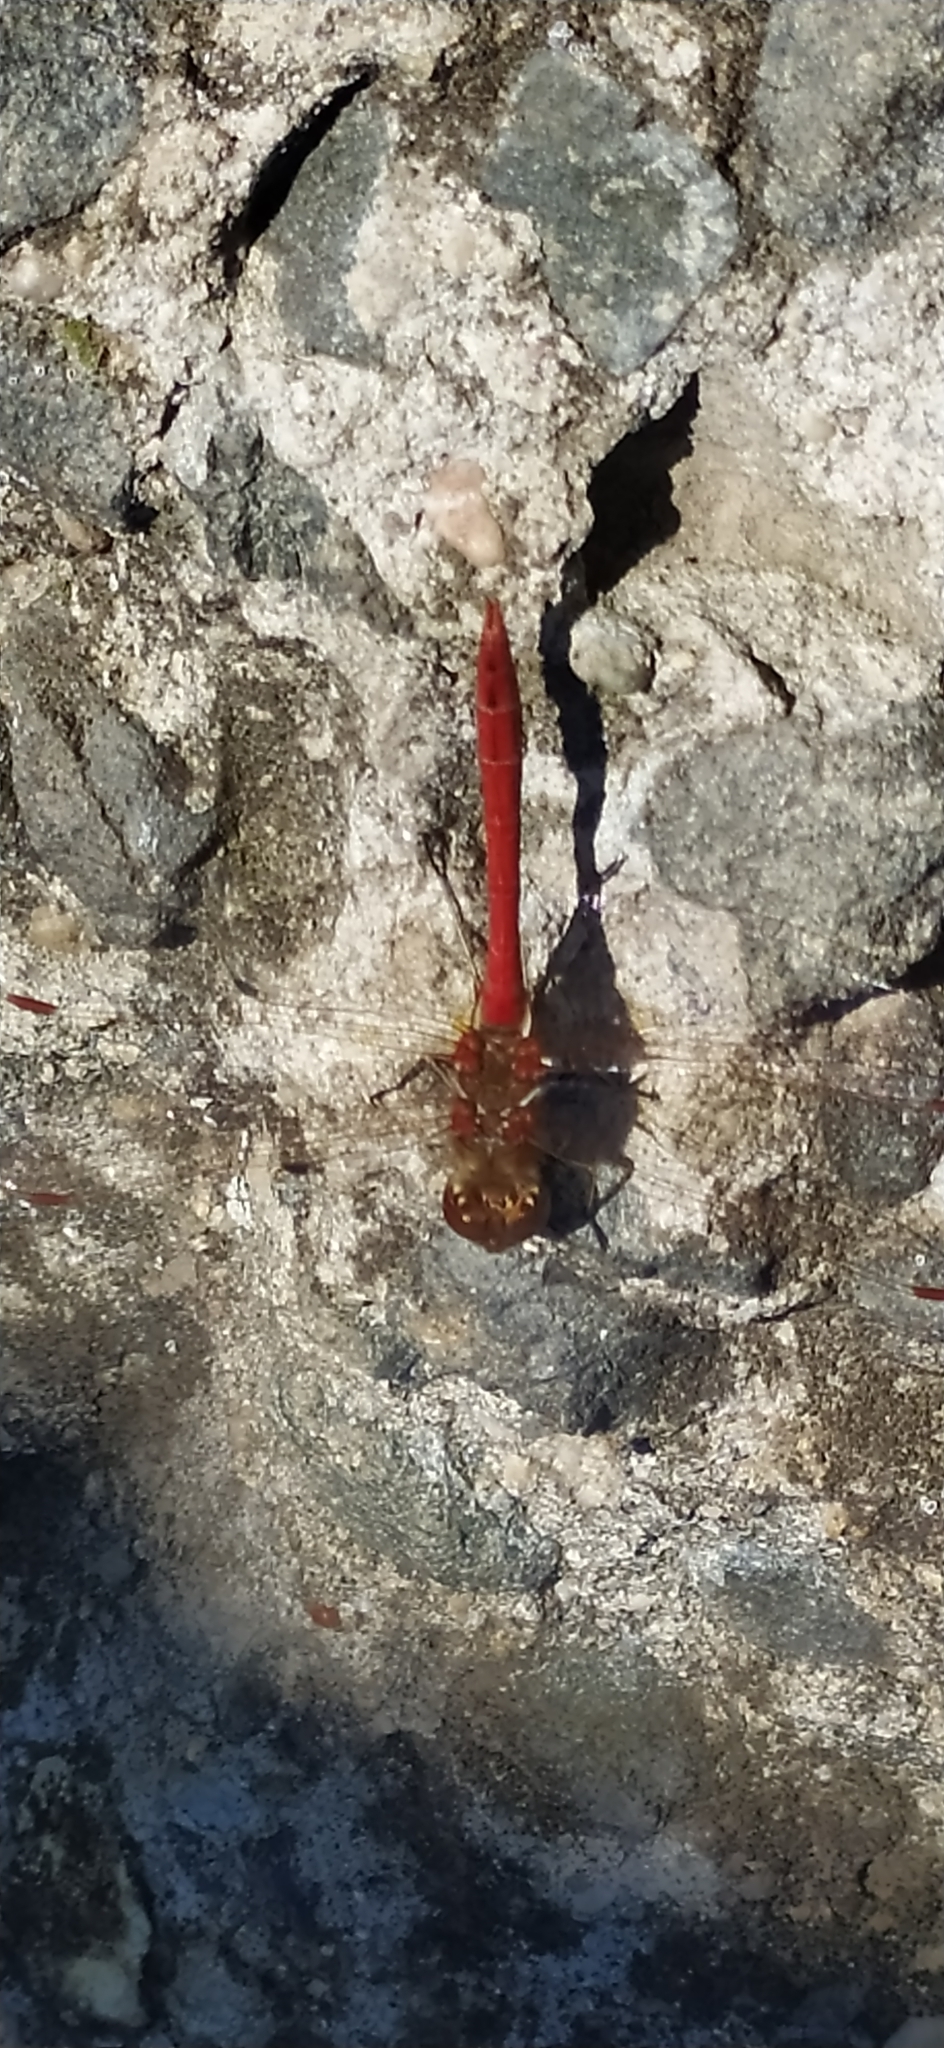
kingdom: Animalia
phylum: Arthropoda
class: Insecta
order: Odonata
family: Libellulidae
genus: Sympetrum
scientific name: Sympetrum vulgatum
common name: Vagrant darter
